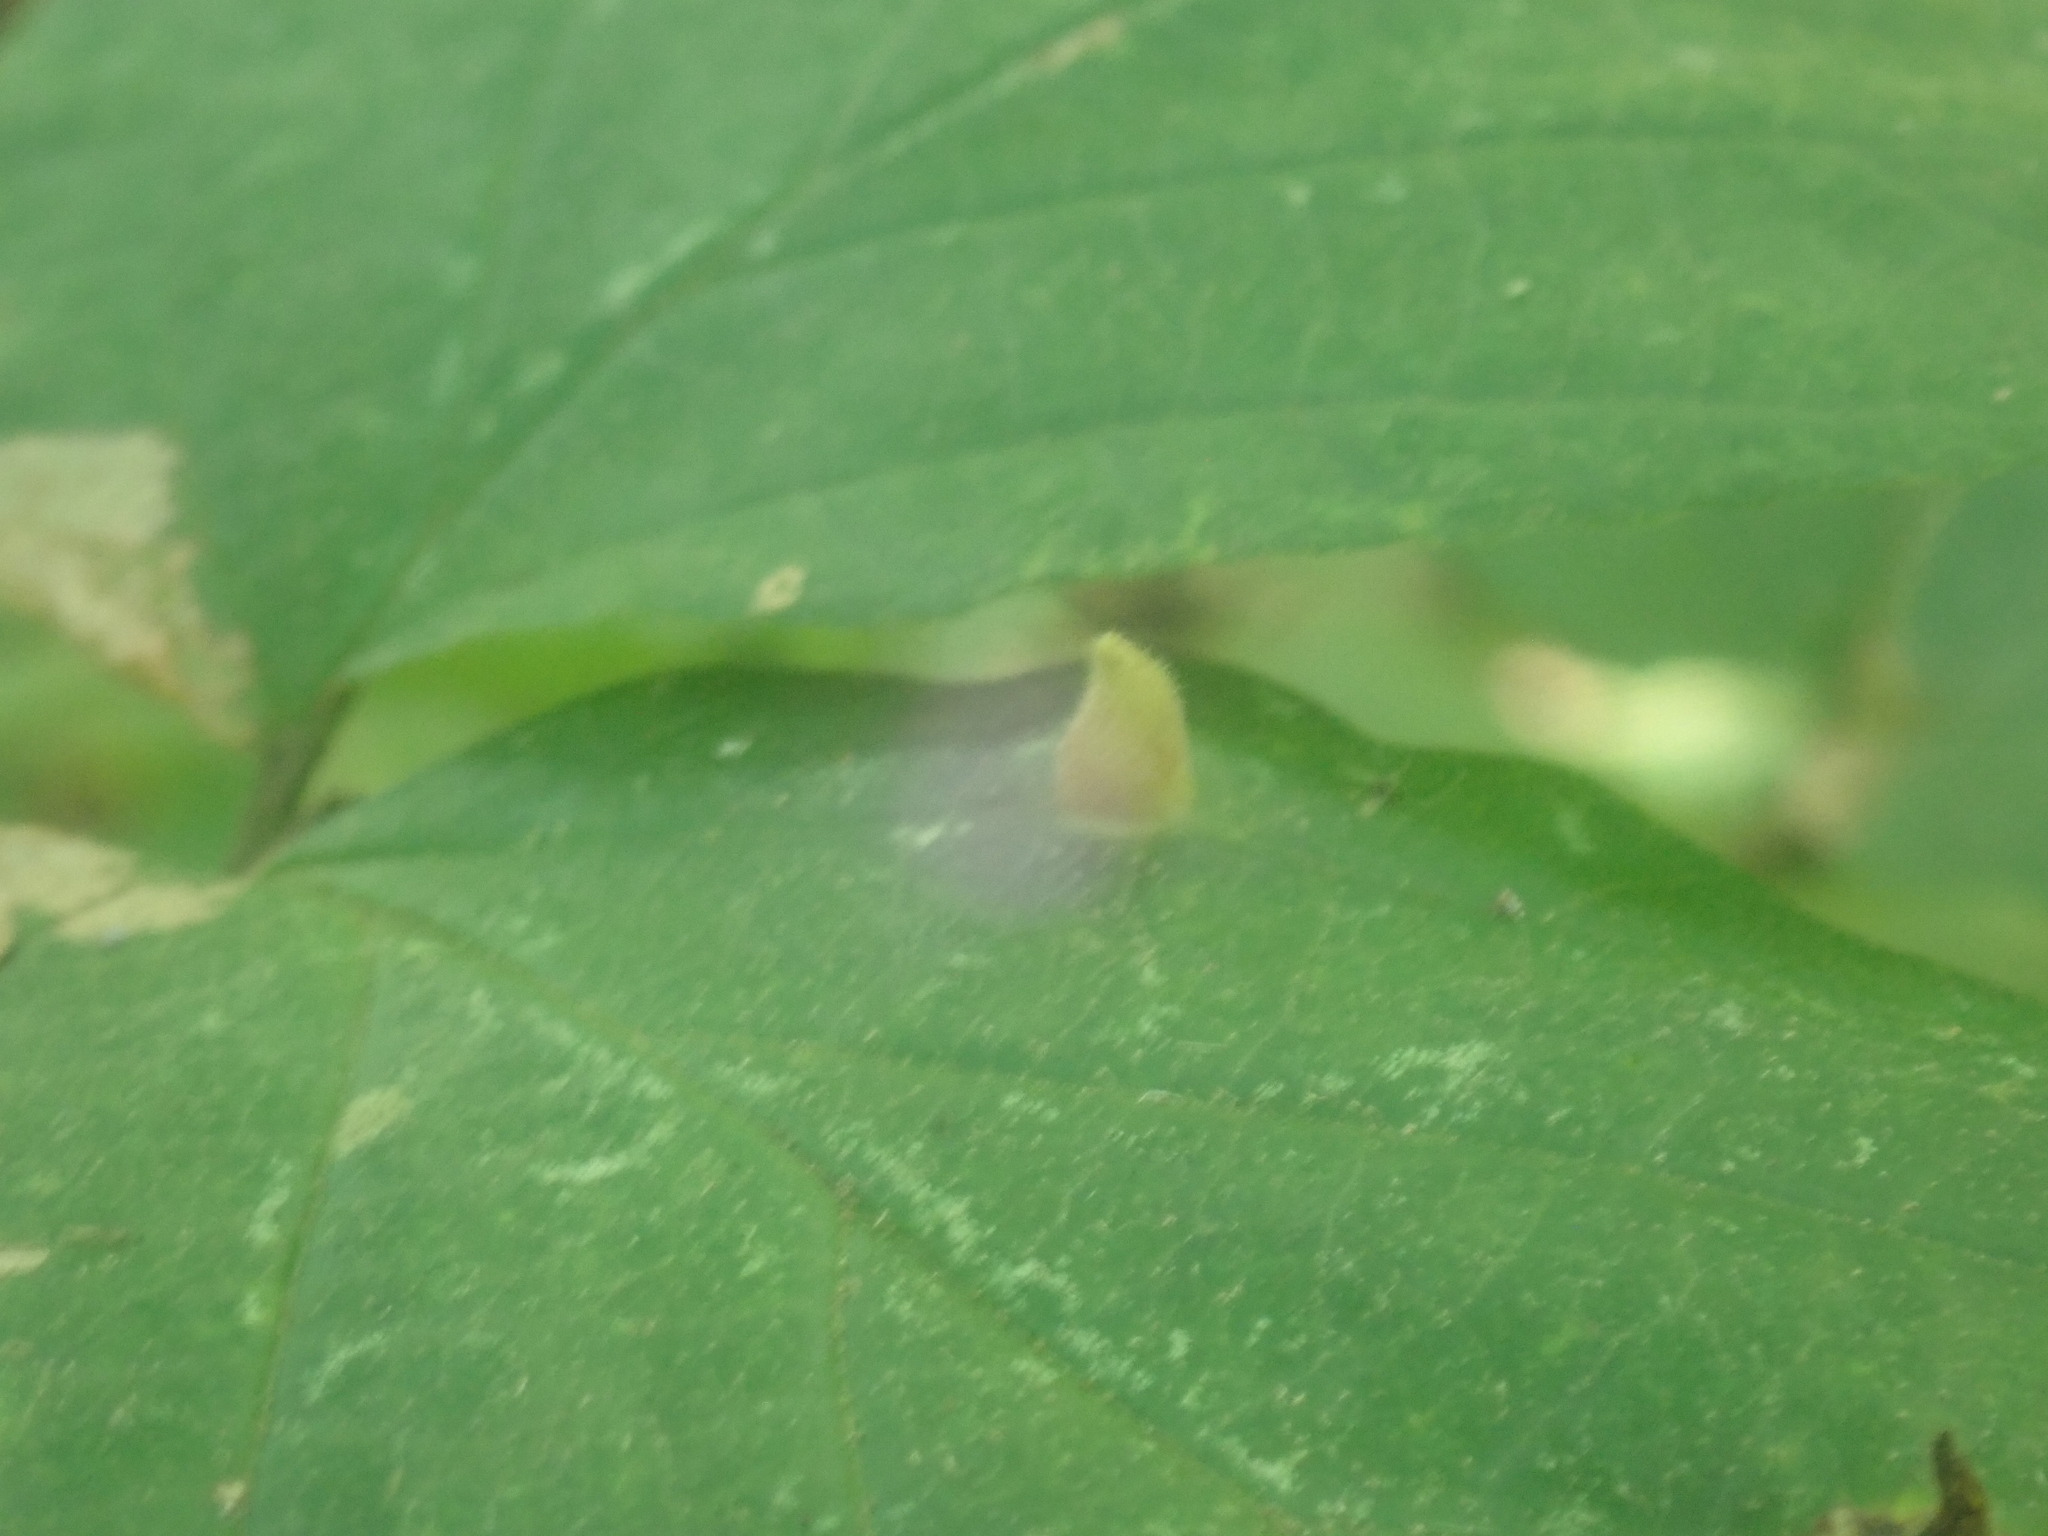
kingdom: Animalia
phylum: Arthropoda
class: Insecta
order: Hemiptera
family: Aphididae
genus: Hormaphis
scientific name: Hormaphis hamamelidis
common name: Witch-hazel cone gall aphid
